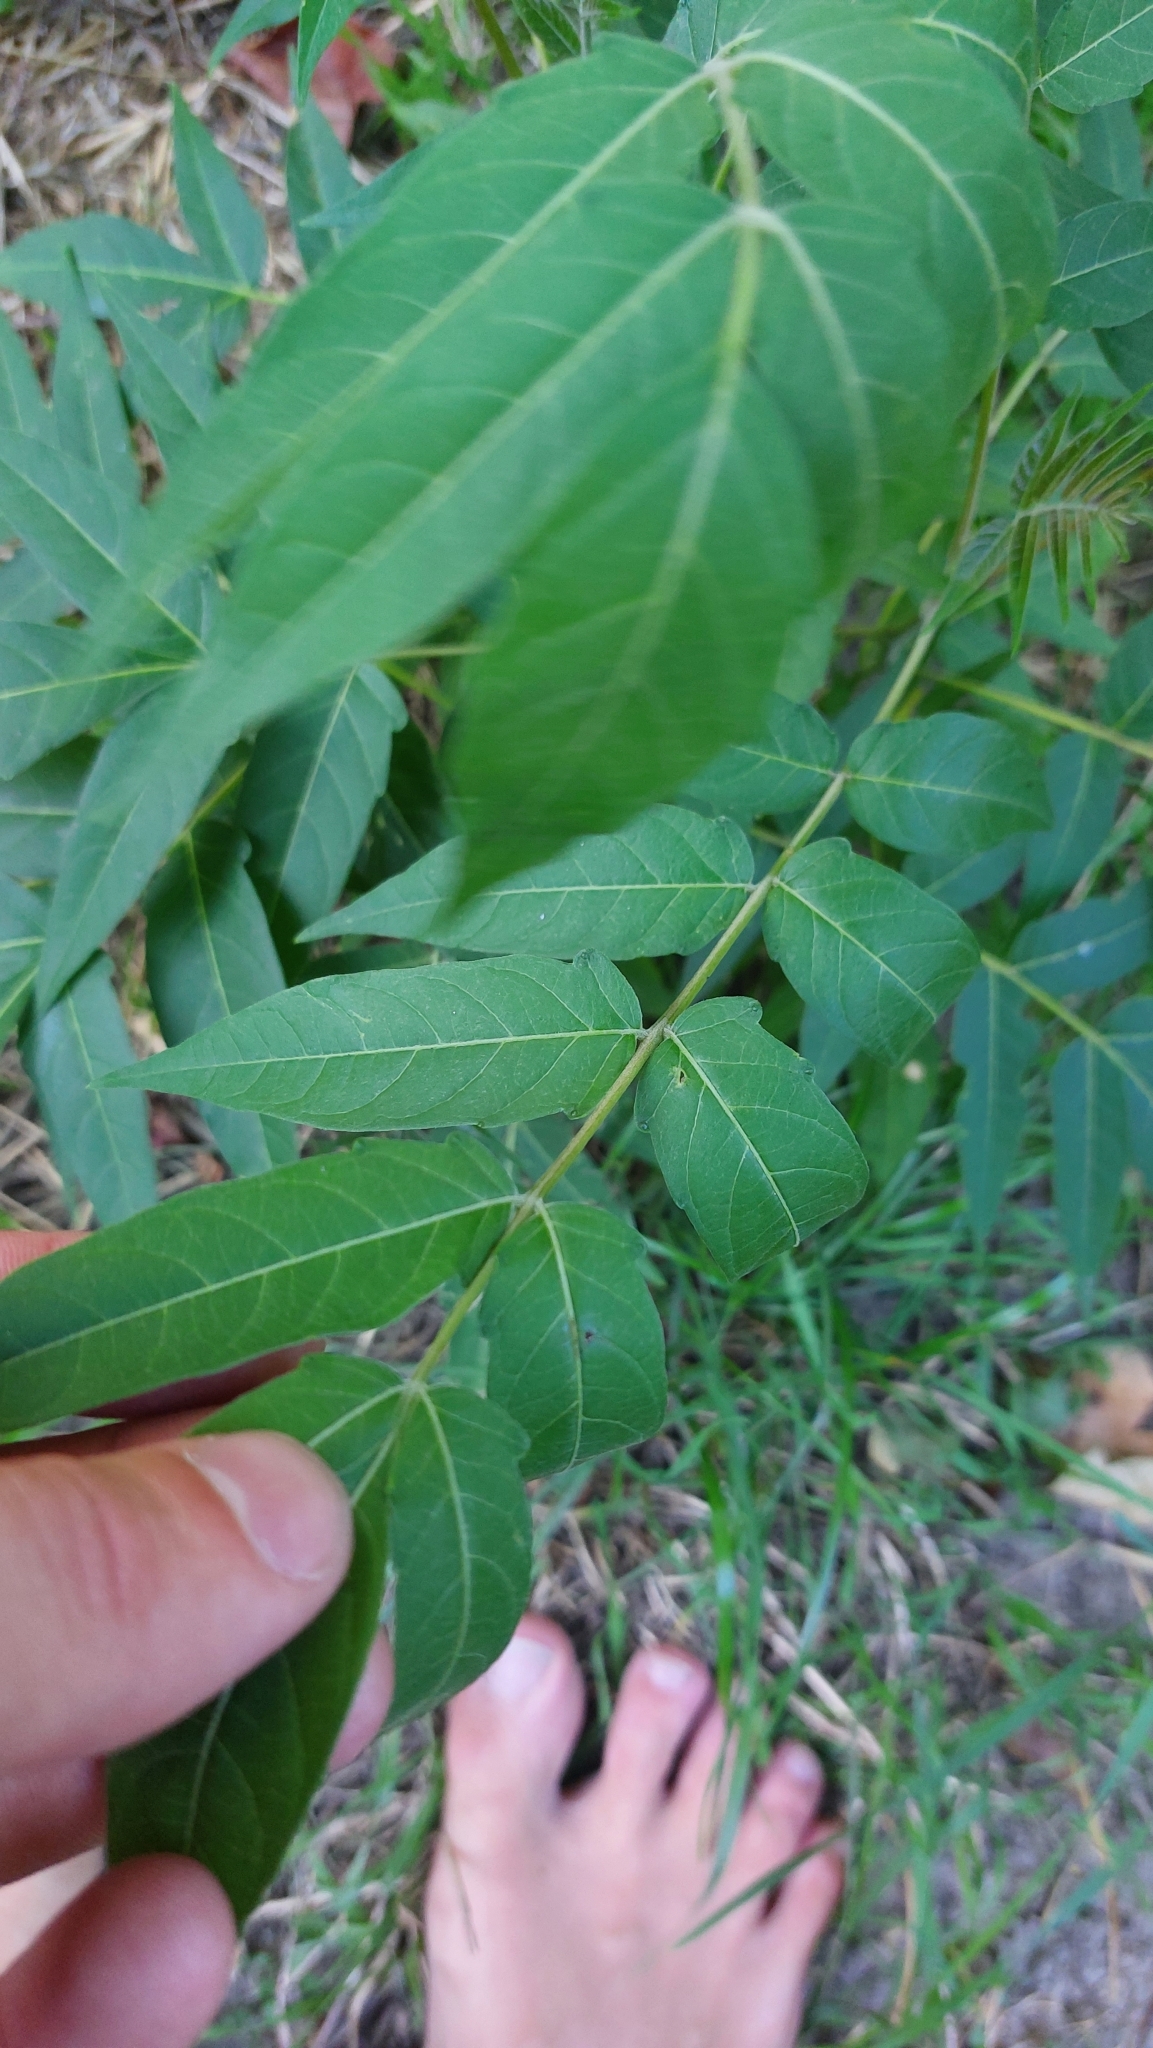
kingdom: Plantae
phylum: Tracheophyta
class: Magnoliopsida
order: Sapindales
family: Simaroubaceae
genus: Ailanthus
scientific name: Ailanthus altissima
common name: Tree-of-heaven
